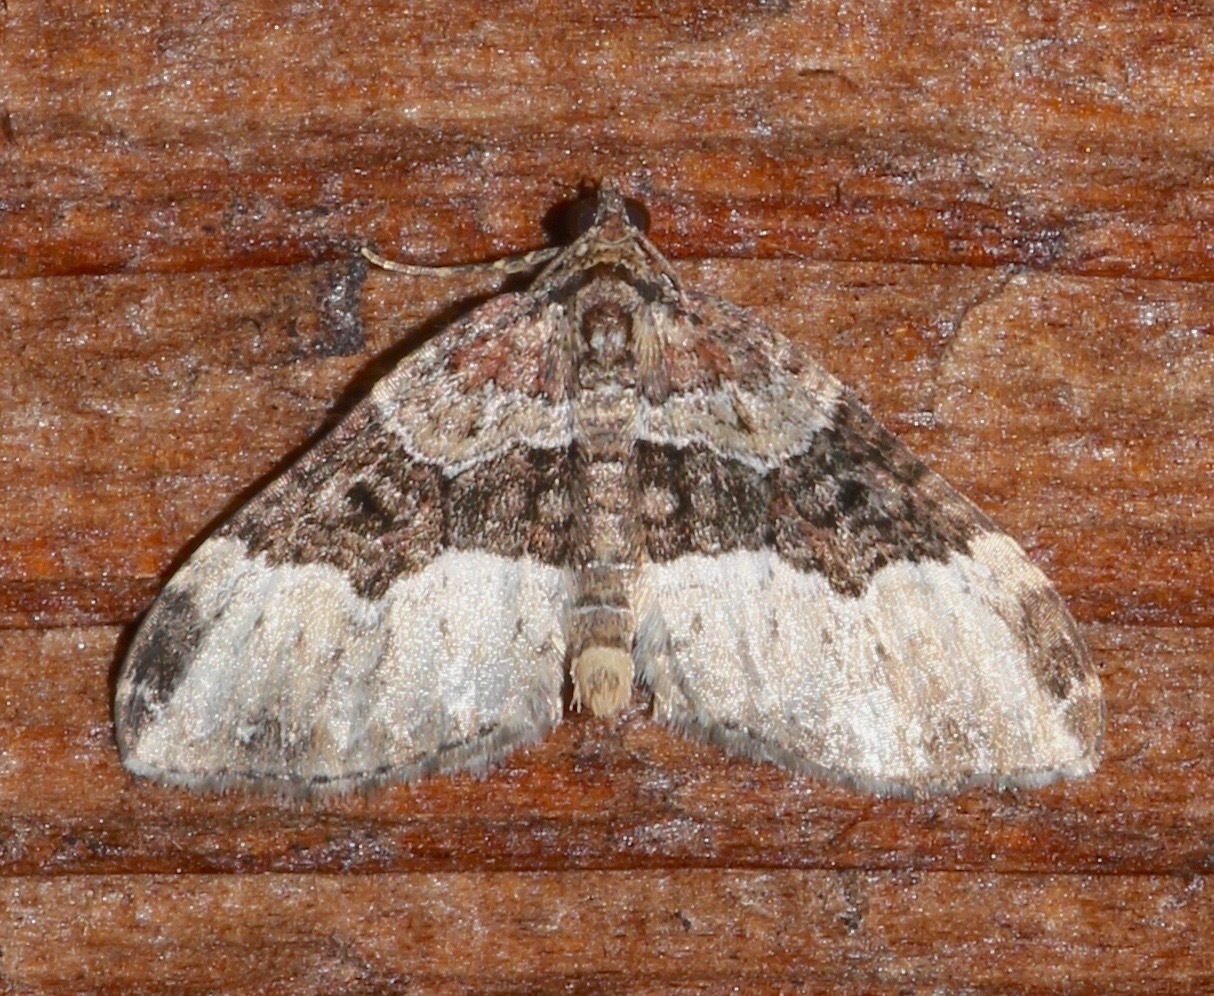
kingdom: Animalia
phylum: Arthropoda
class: Insecta
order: Lepidoptera
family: Geometridae
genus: Euphyia
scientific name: Euphyia intermediata
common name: Sharp-angled carpet
